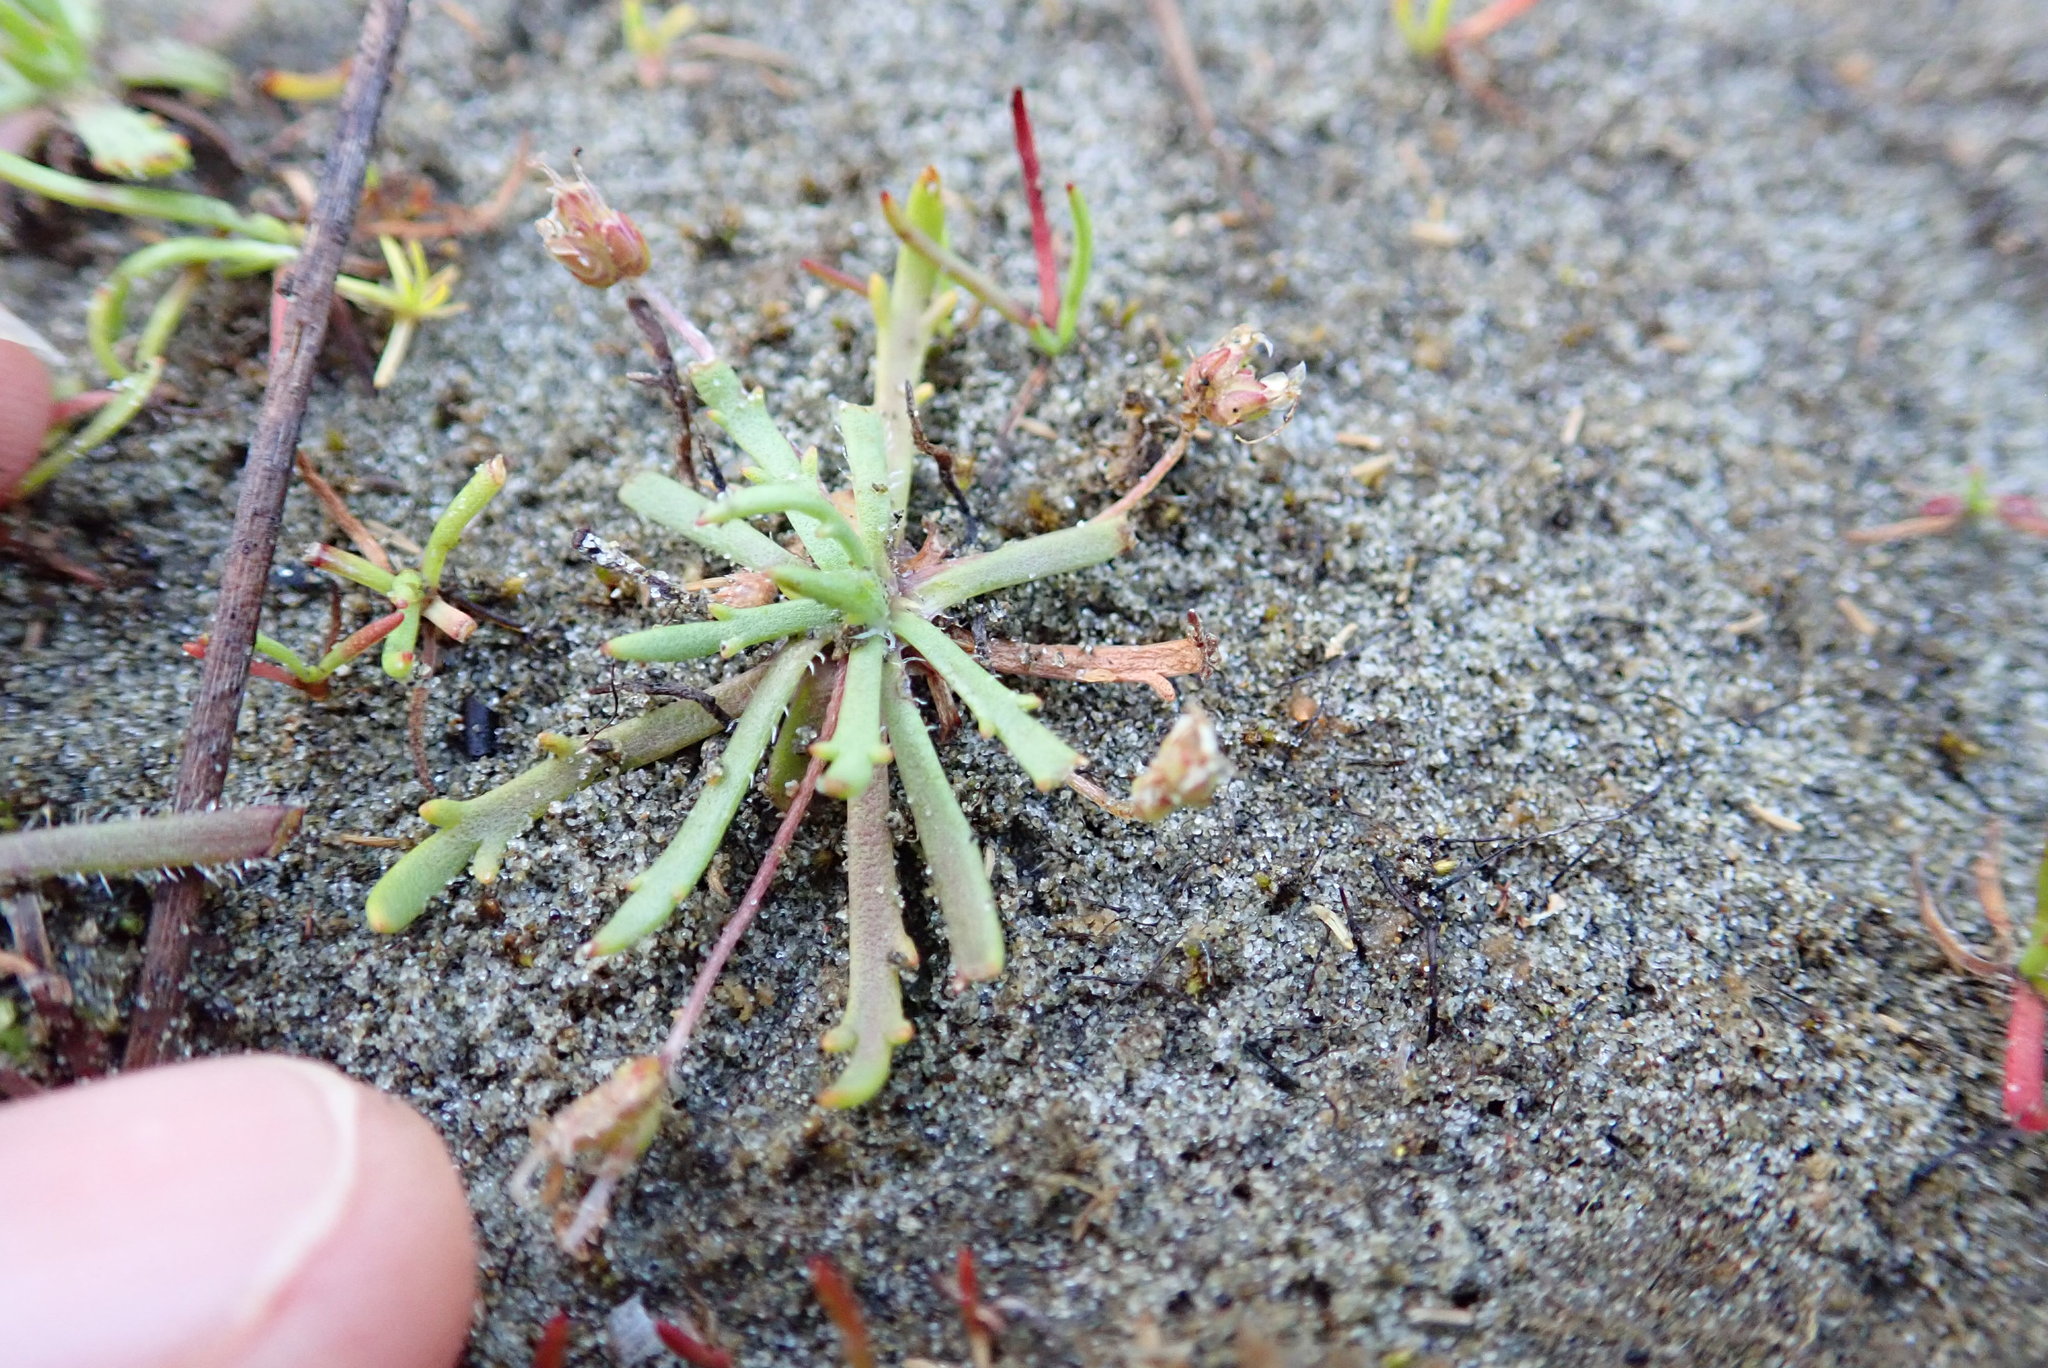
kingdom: Plantae
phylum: Tracheophyta
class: Magnoliopsida
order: Lamiales
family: Plantaginaceae
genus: Plantago
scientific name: Plantago coronopus
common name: Buck's-horn plantain
